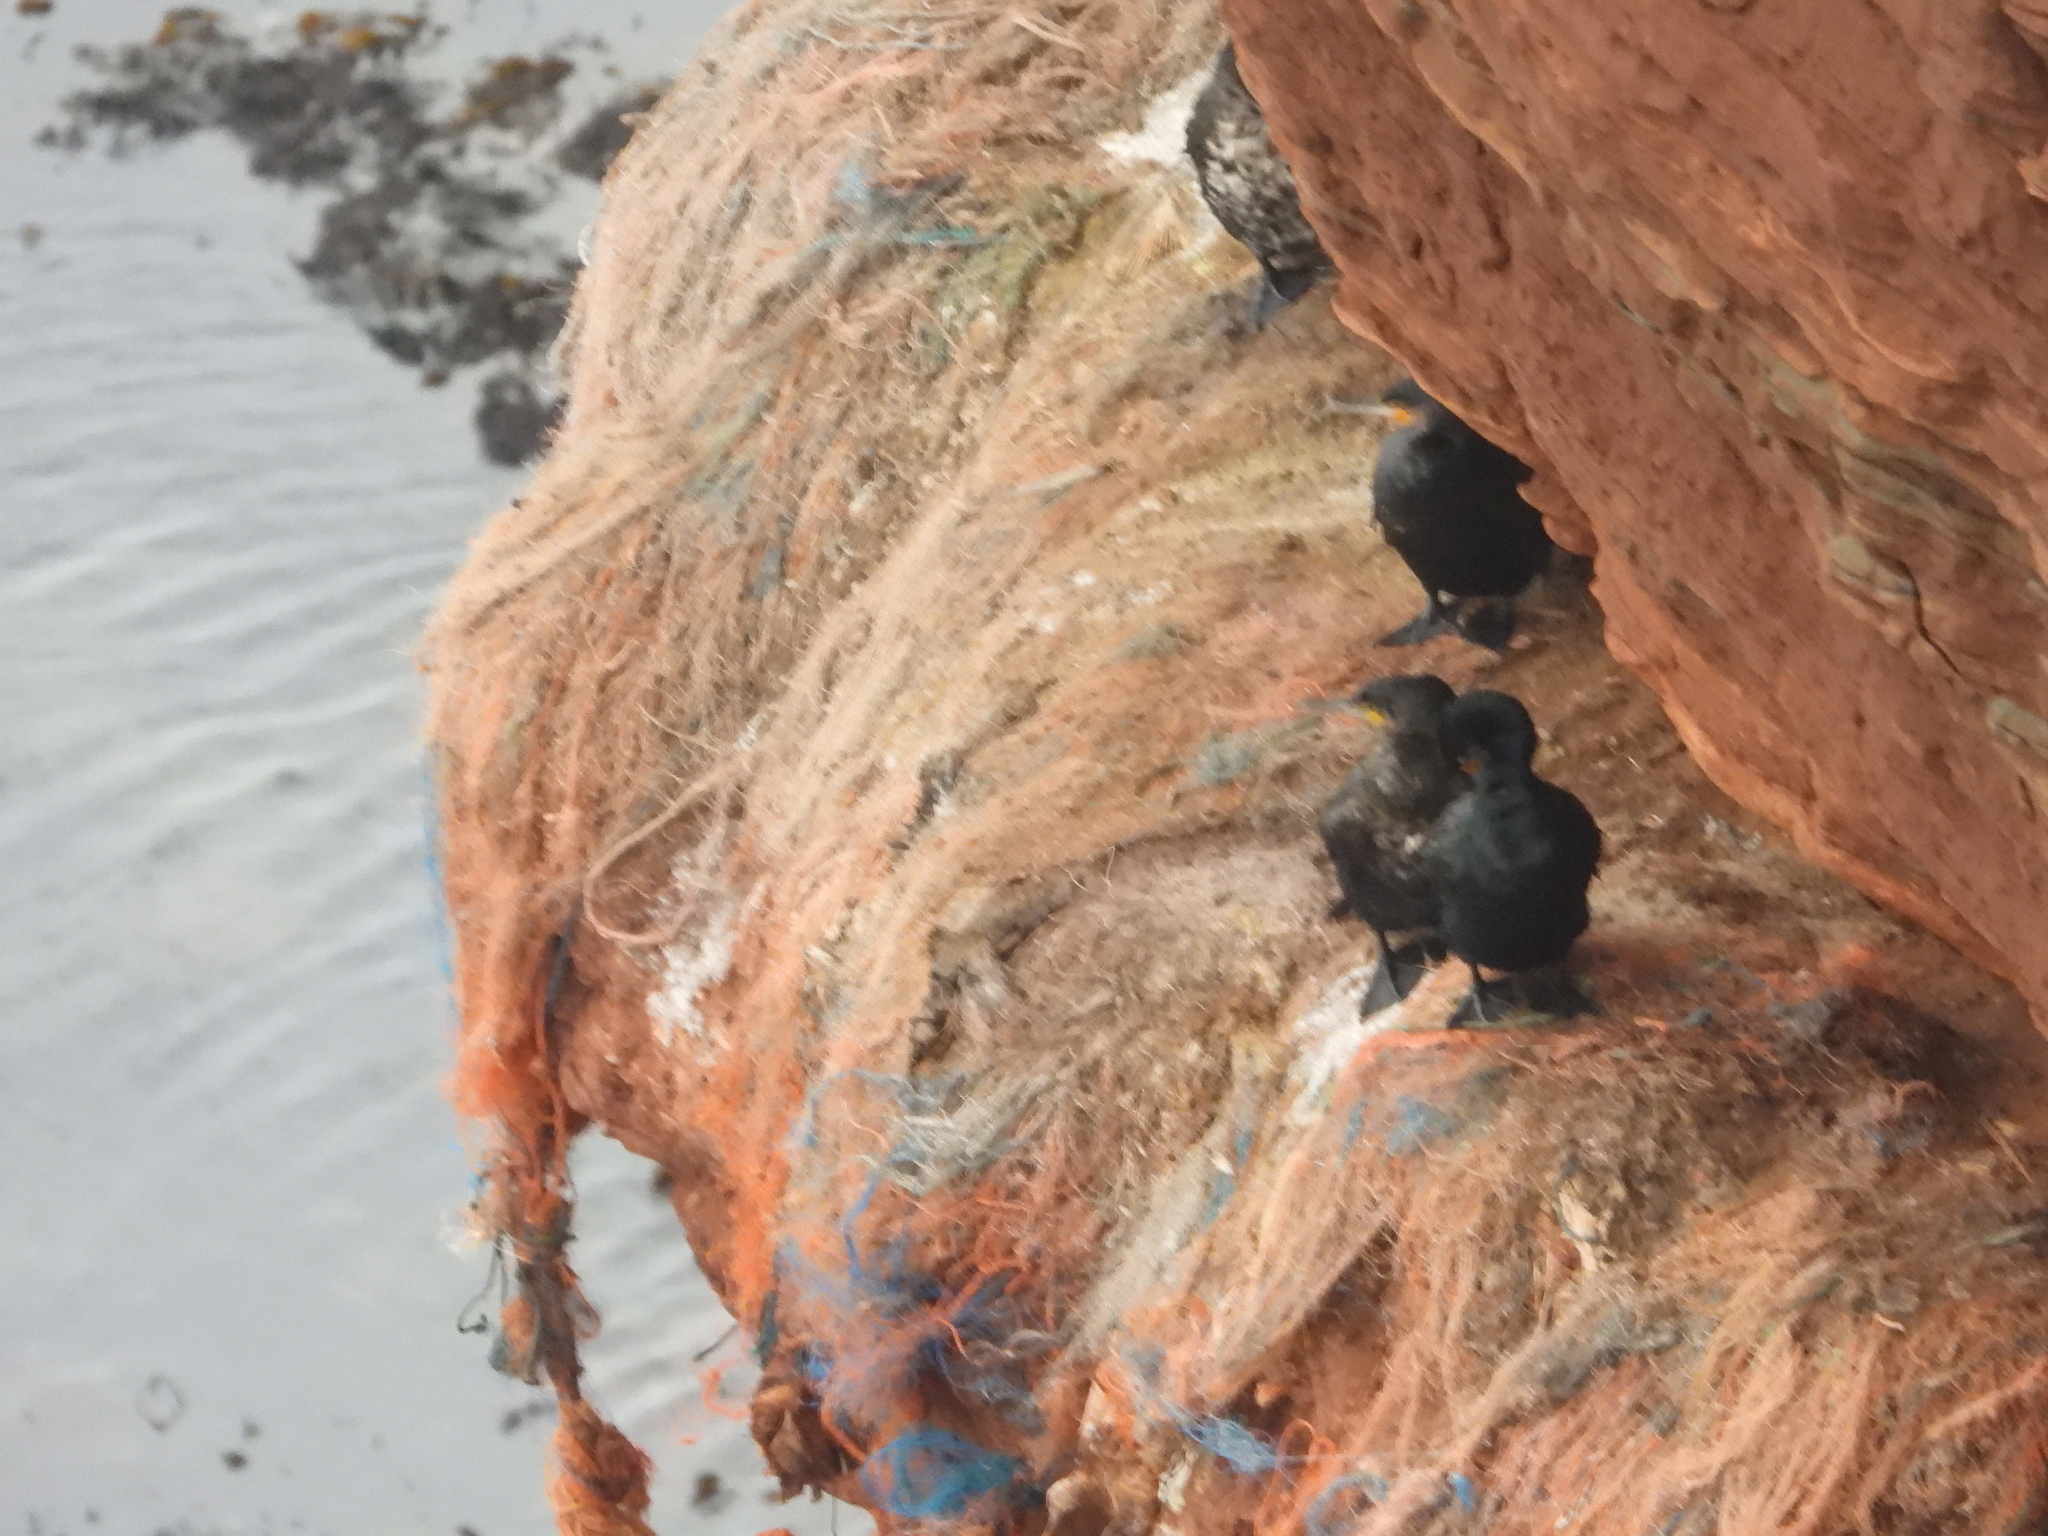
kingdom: Animalia
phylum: Chordata
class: Aves
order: Suliformes
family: Phalacrocoracidae
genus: Phalacrocorax
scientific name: Phalacrocorax carbo
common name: Great cormorant
